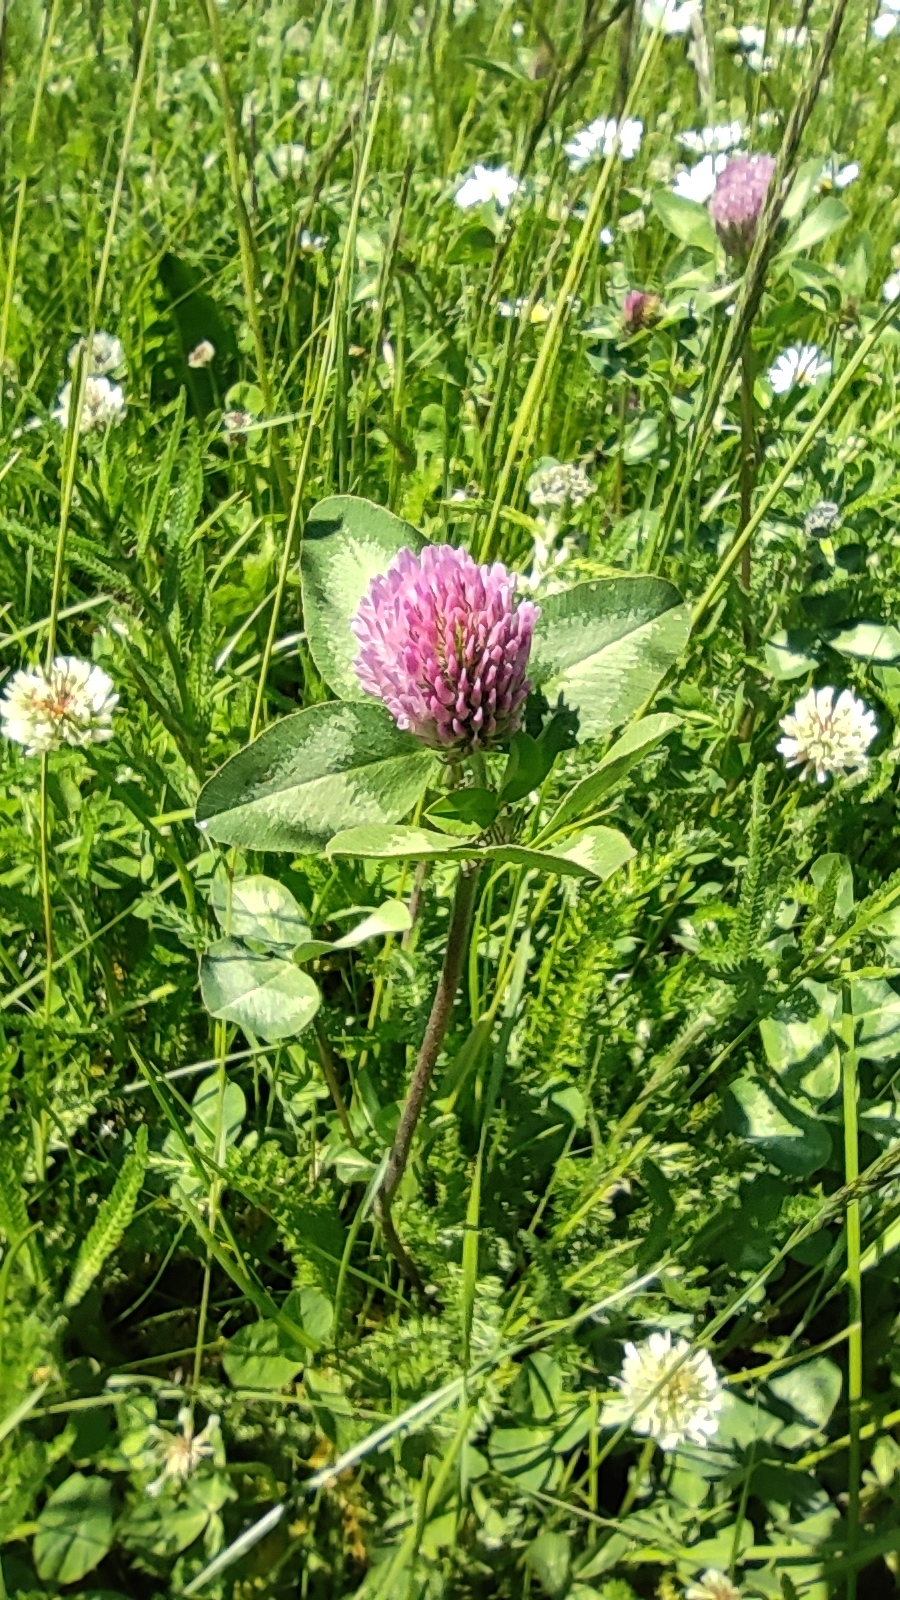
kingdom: Plantae
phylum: Tracheophyta
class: Magnoliopsida
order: Fabales
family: Fabaceae
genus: Trifolium
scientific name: Trifolium pratense
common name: Red clover
